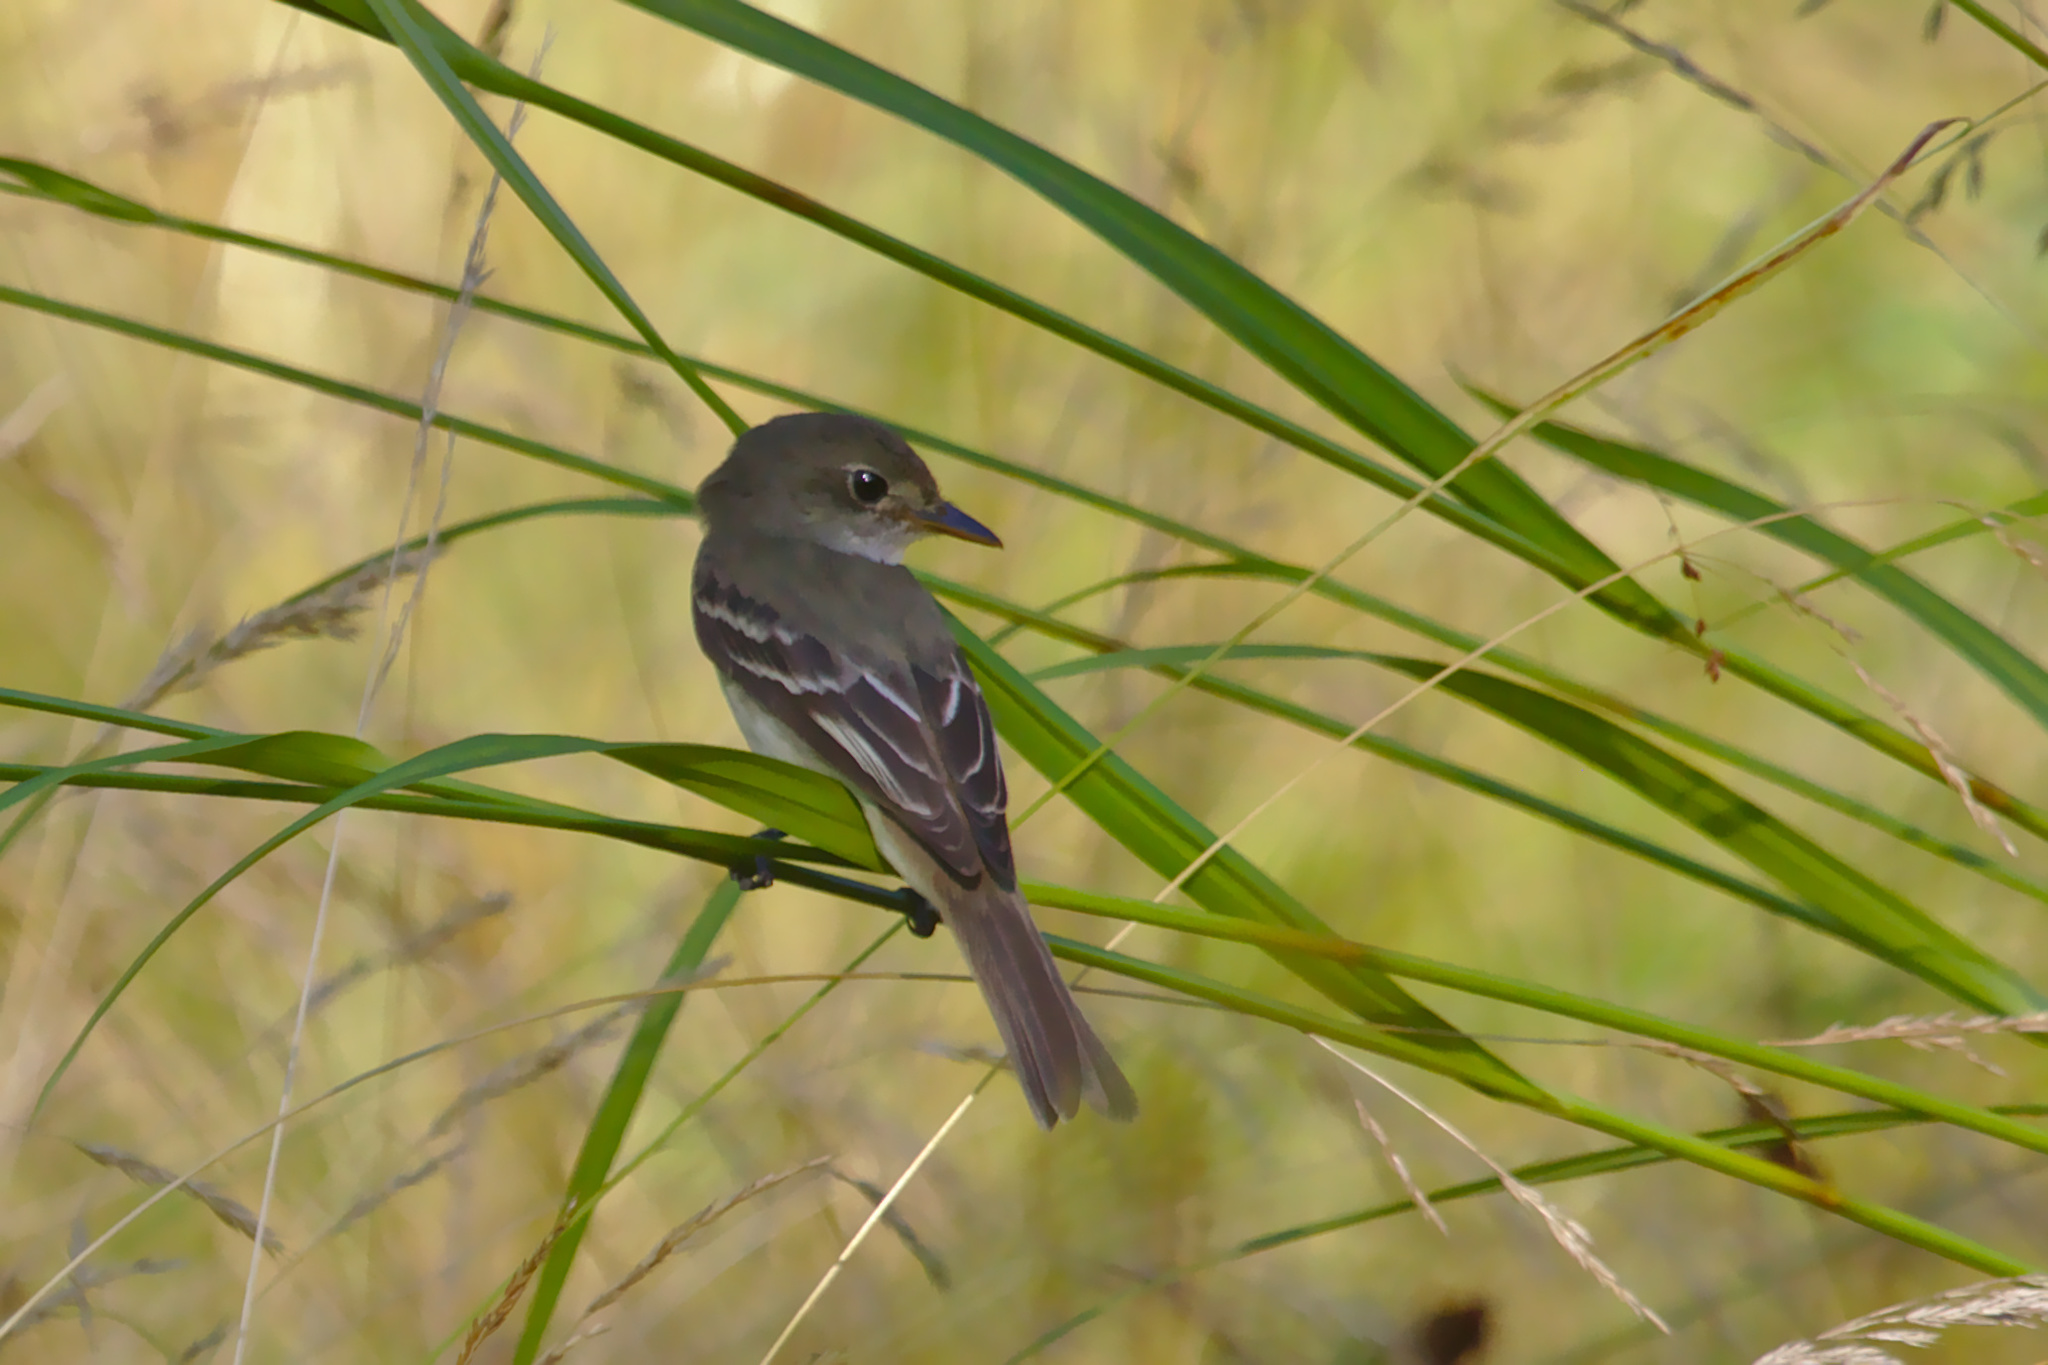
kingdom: Animalia
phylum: Chordata
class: Aves
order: Passeriformes
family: Tyrannidae
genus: Empidonax
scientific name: Empidonax
